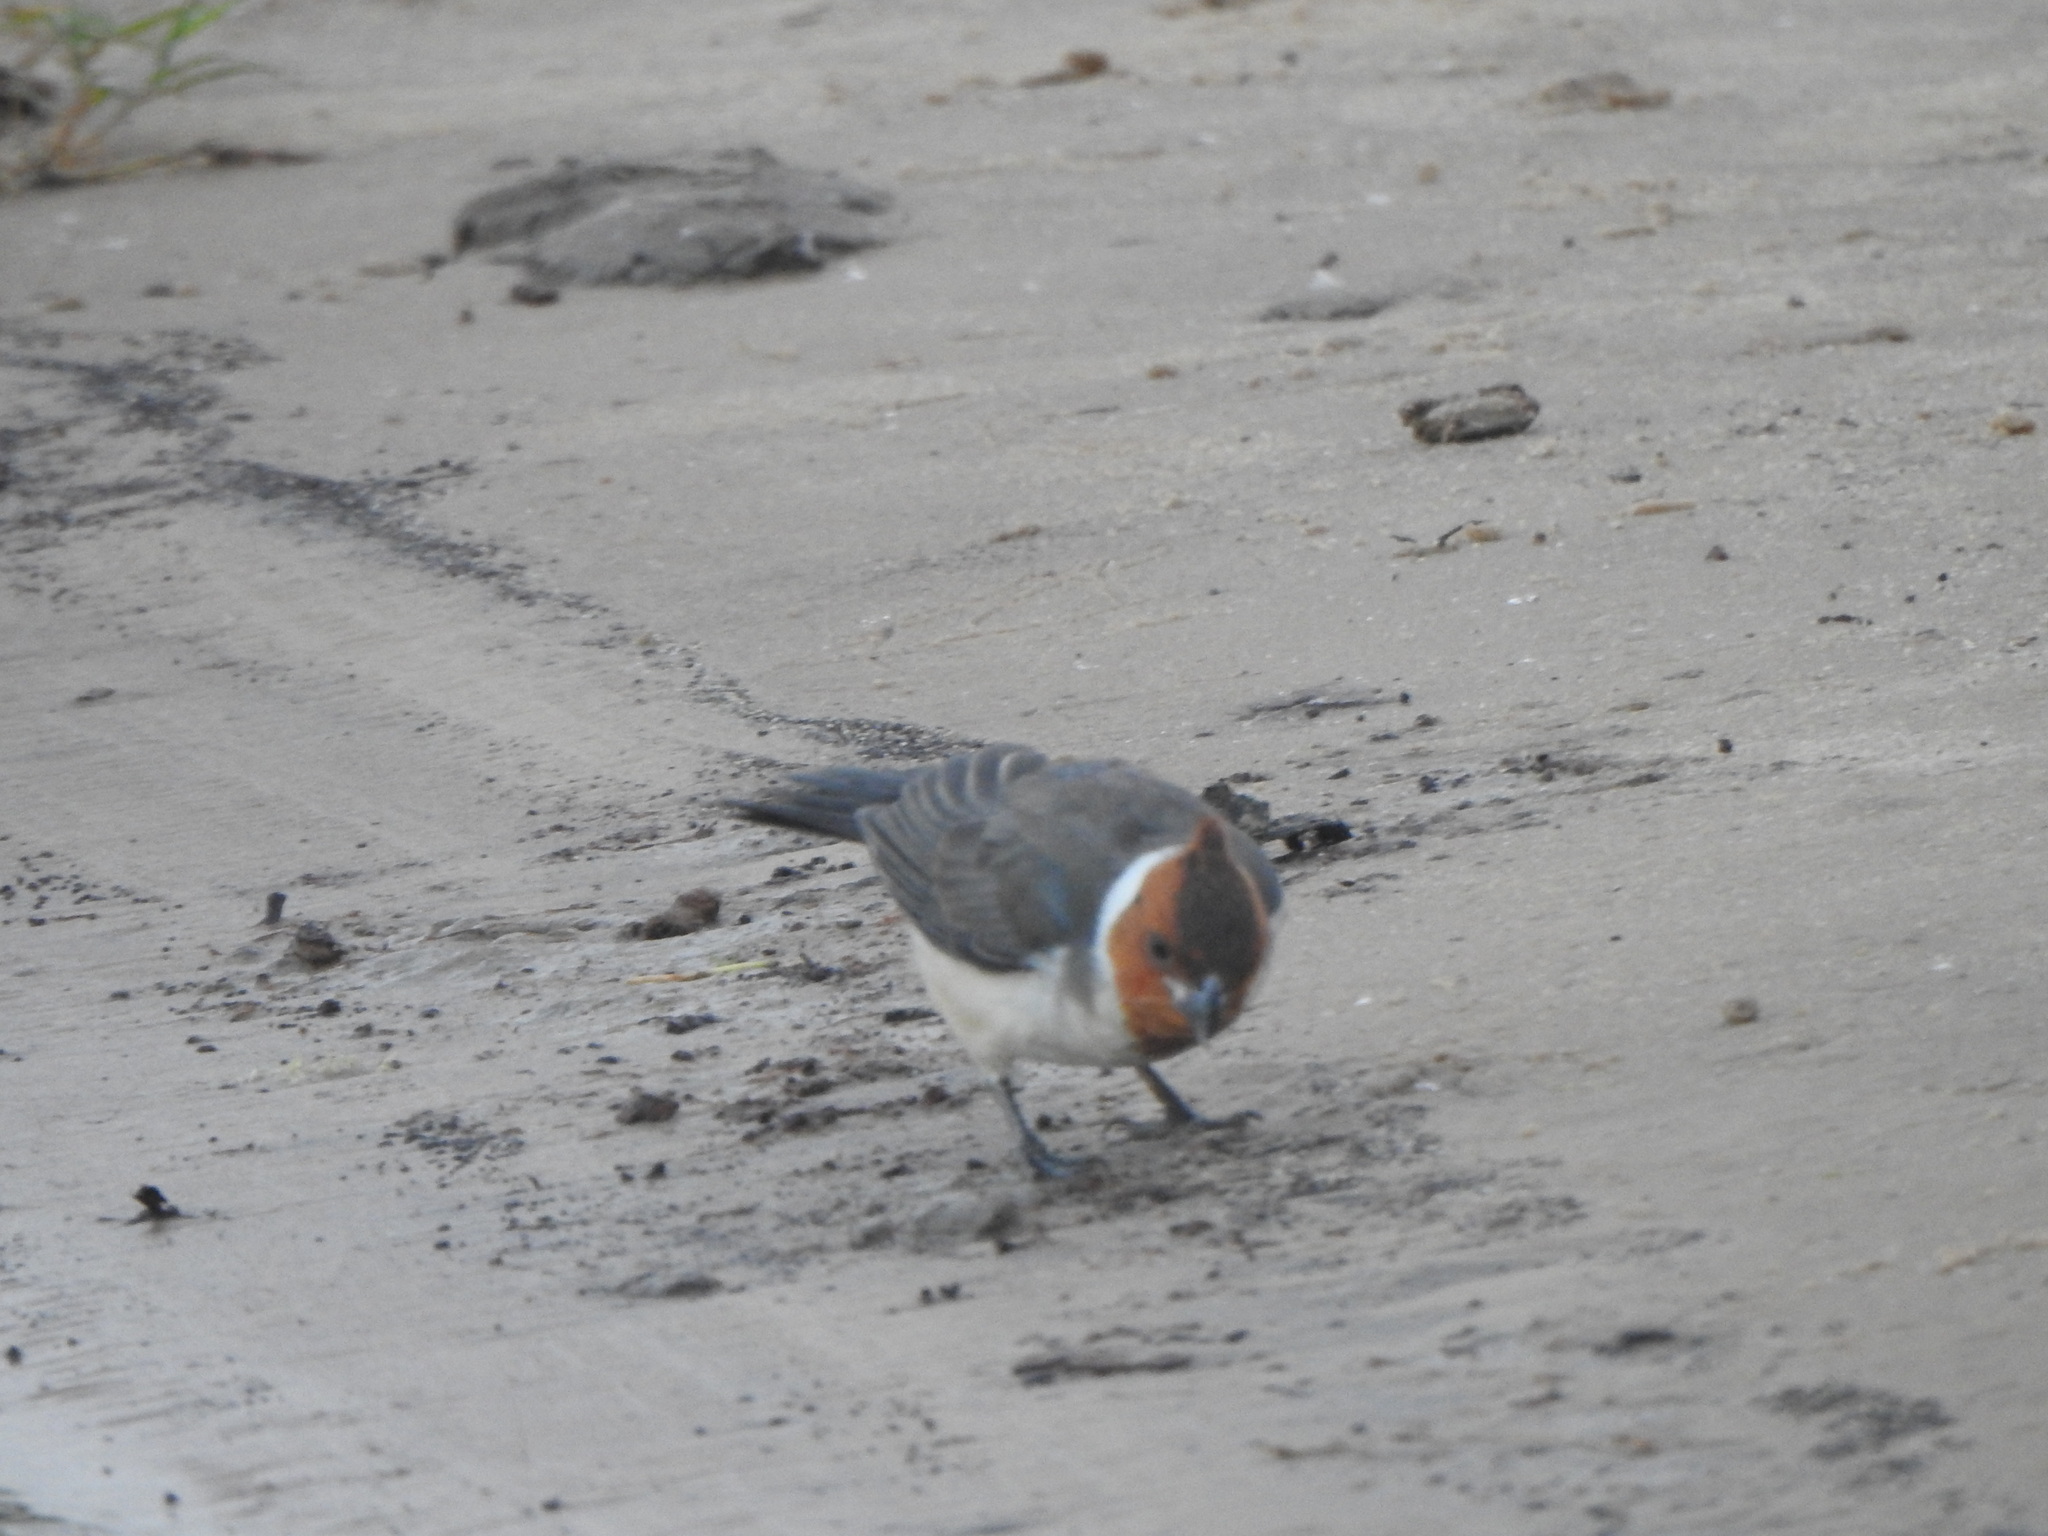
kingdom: Animalia
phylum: Chordata
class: Aves
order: Passeriformes
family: Thraupidae
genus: Paroaria
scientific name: Paroaria coronata
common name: Red-crested cardinal
